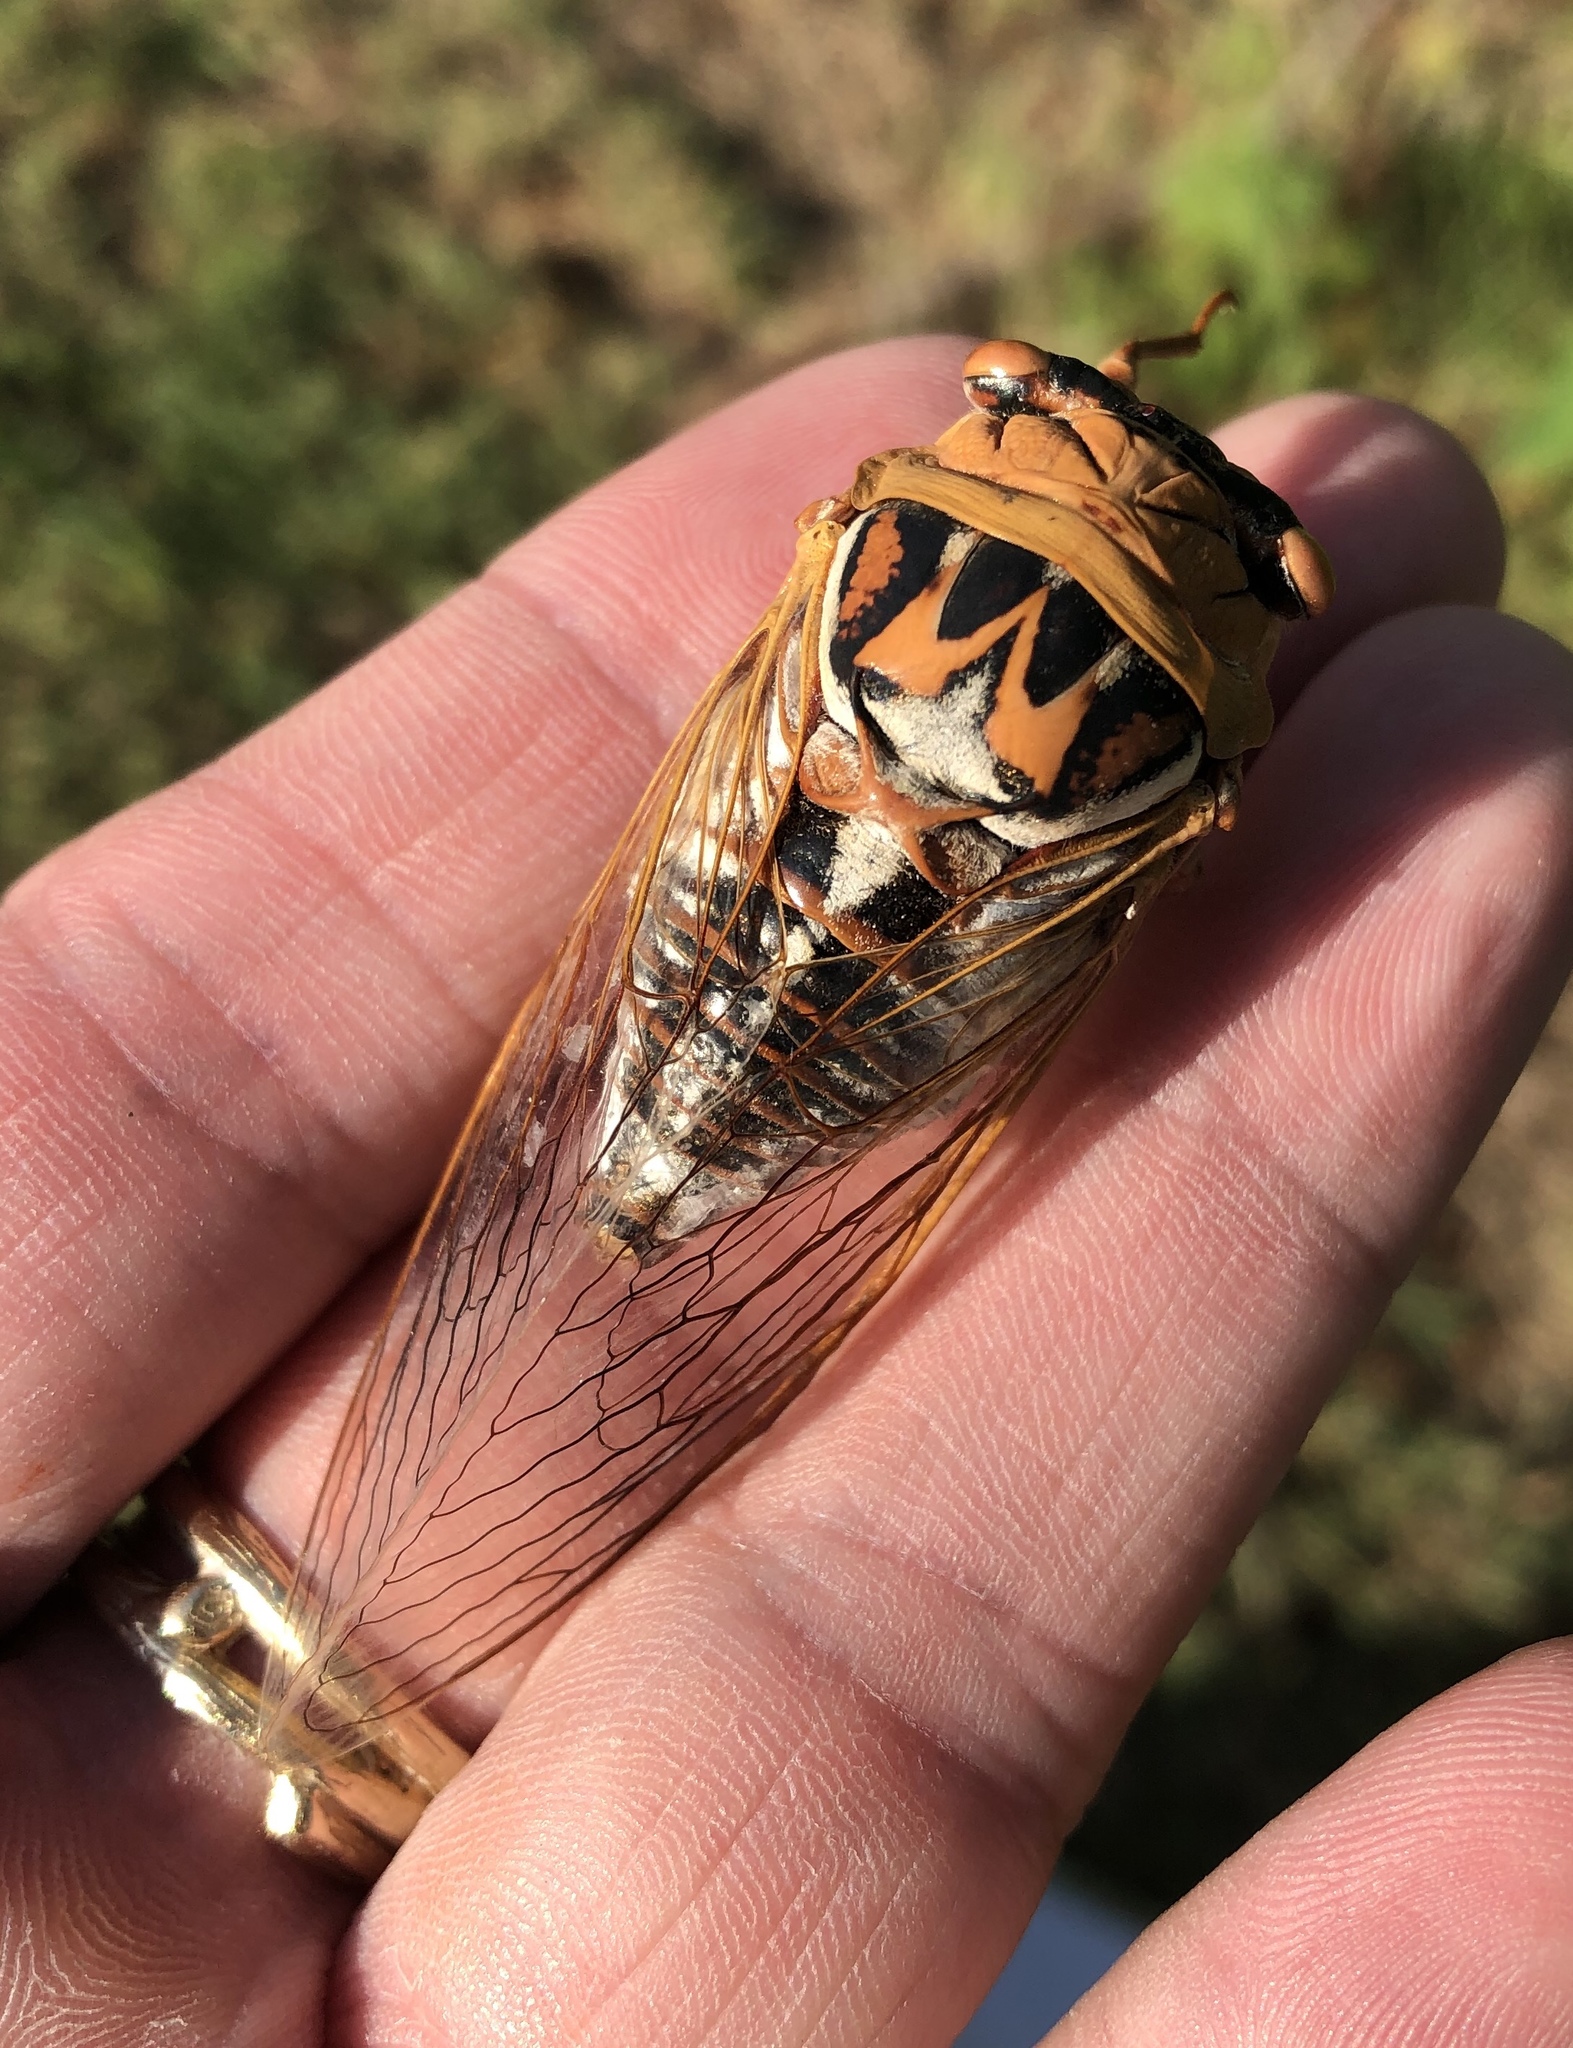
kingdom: Animalia
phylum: Arthropoda
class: Insecta
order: Hemiptera
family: Cicadidae
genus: Megatibicen
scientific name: Megatibicen dealbatus
